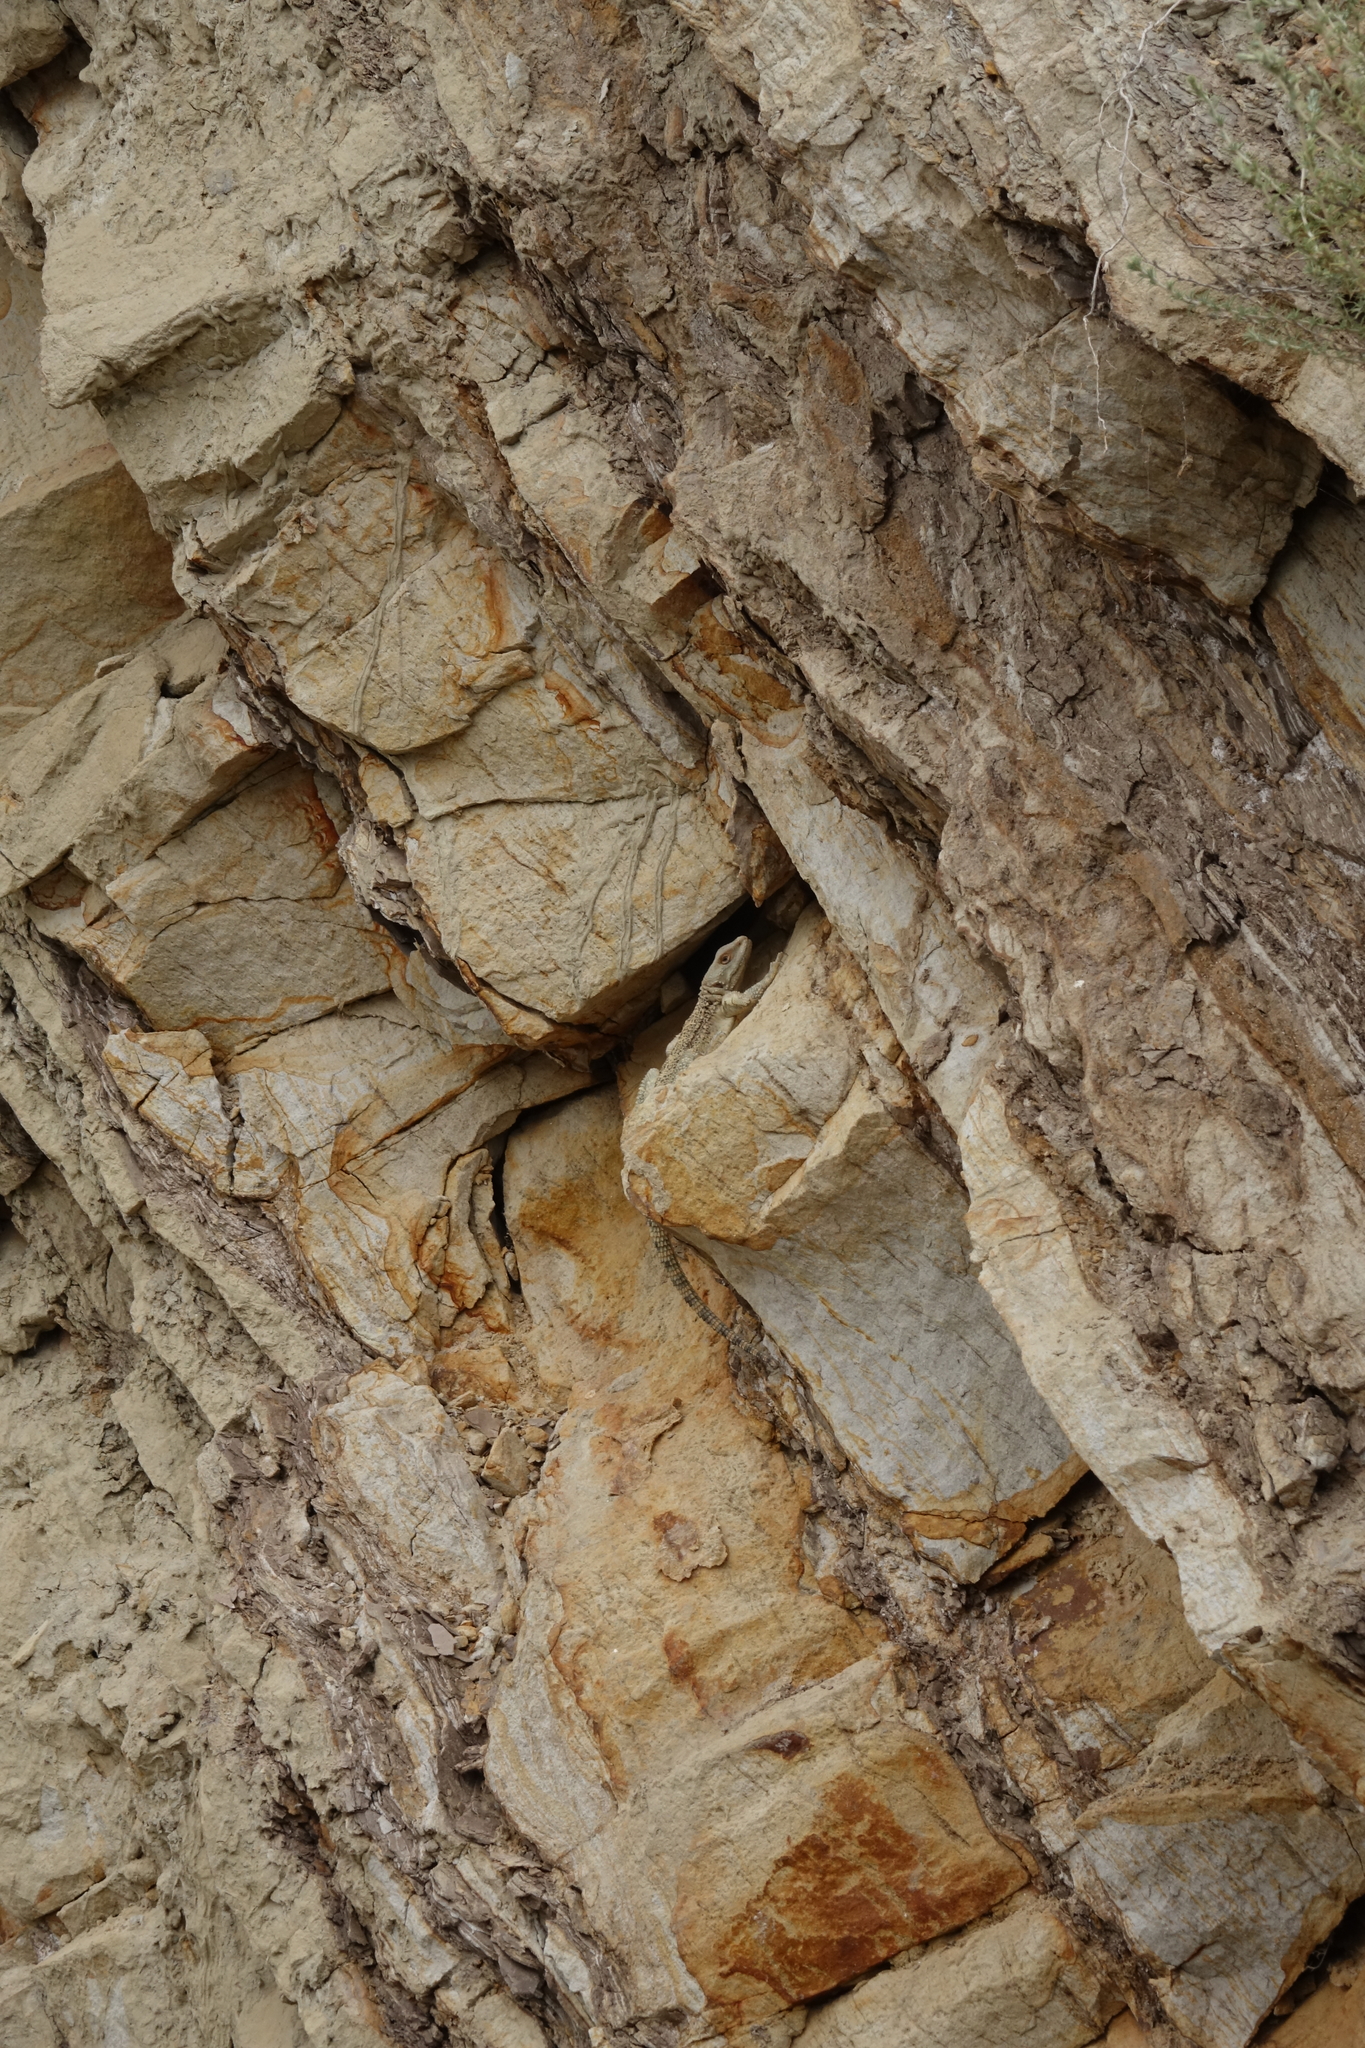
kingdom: Animalia
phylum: Chordata
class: Squamata
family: Agamidae
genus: Paralaudakia
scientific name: Paralaudakia caucasia
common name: Caucasian agama
